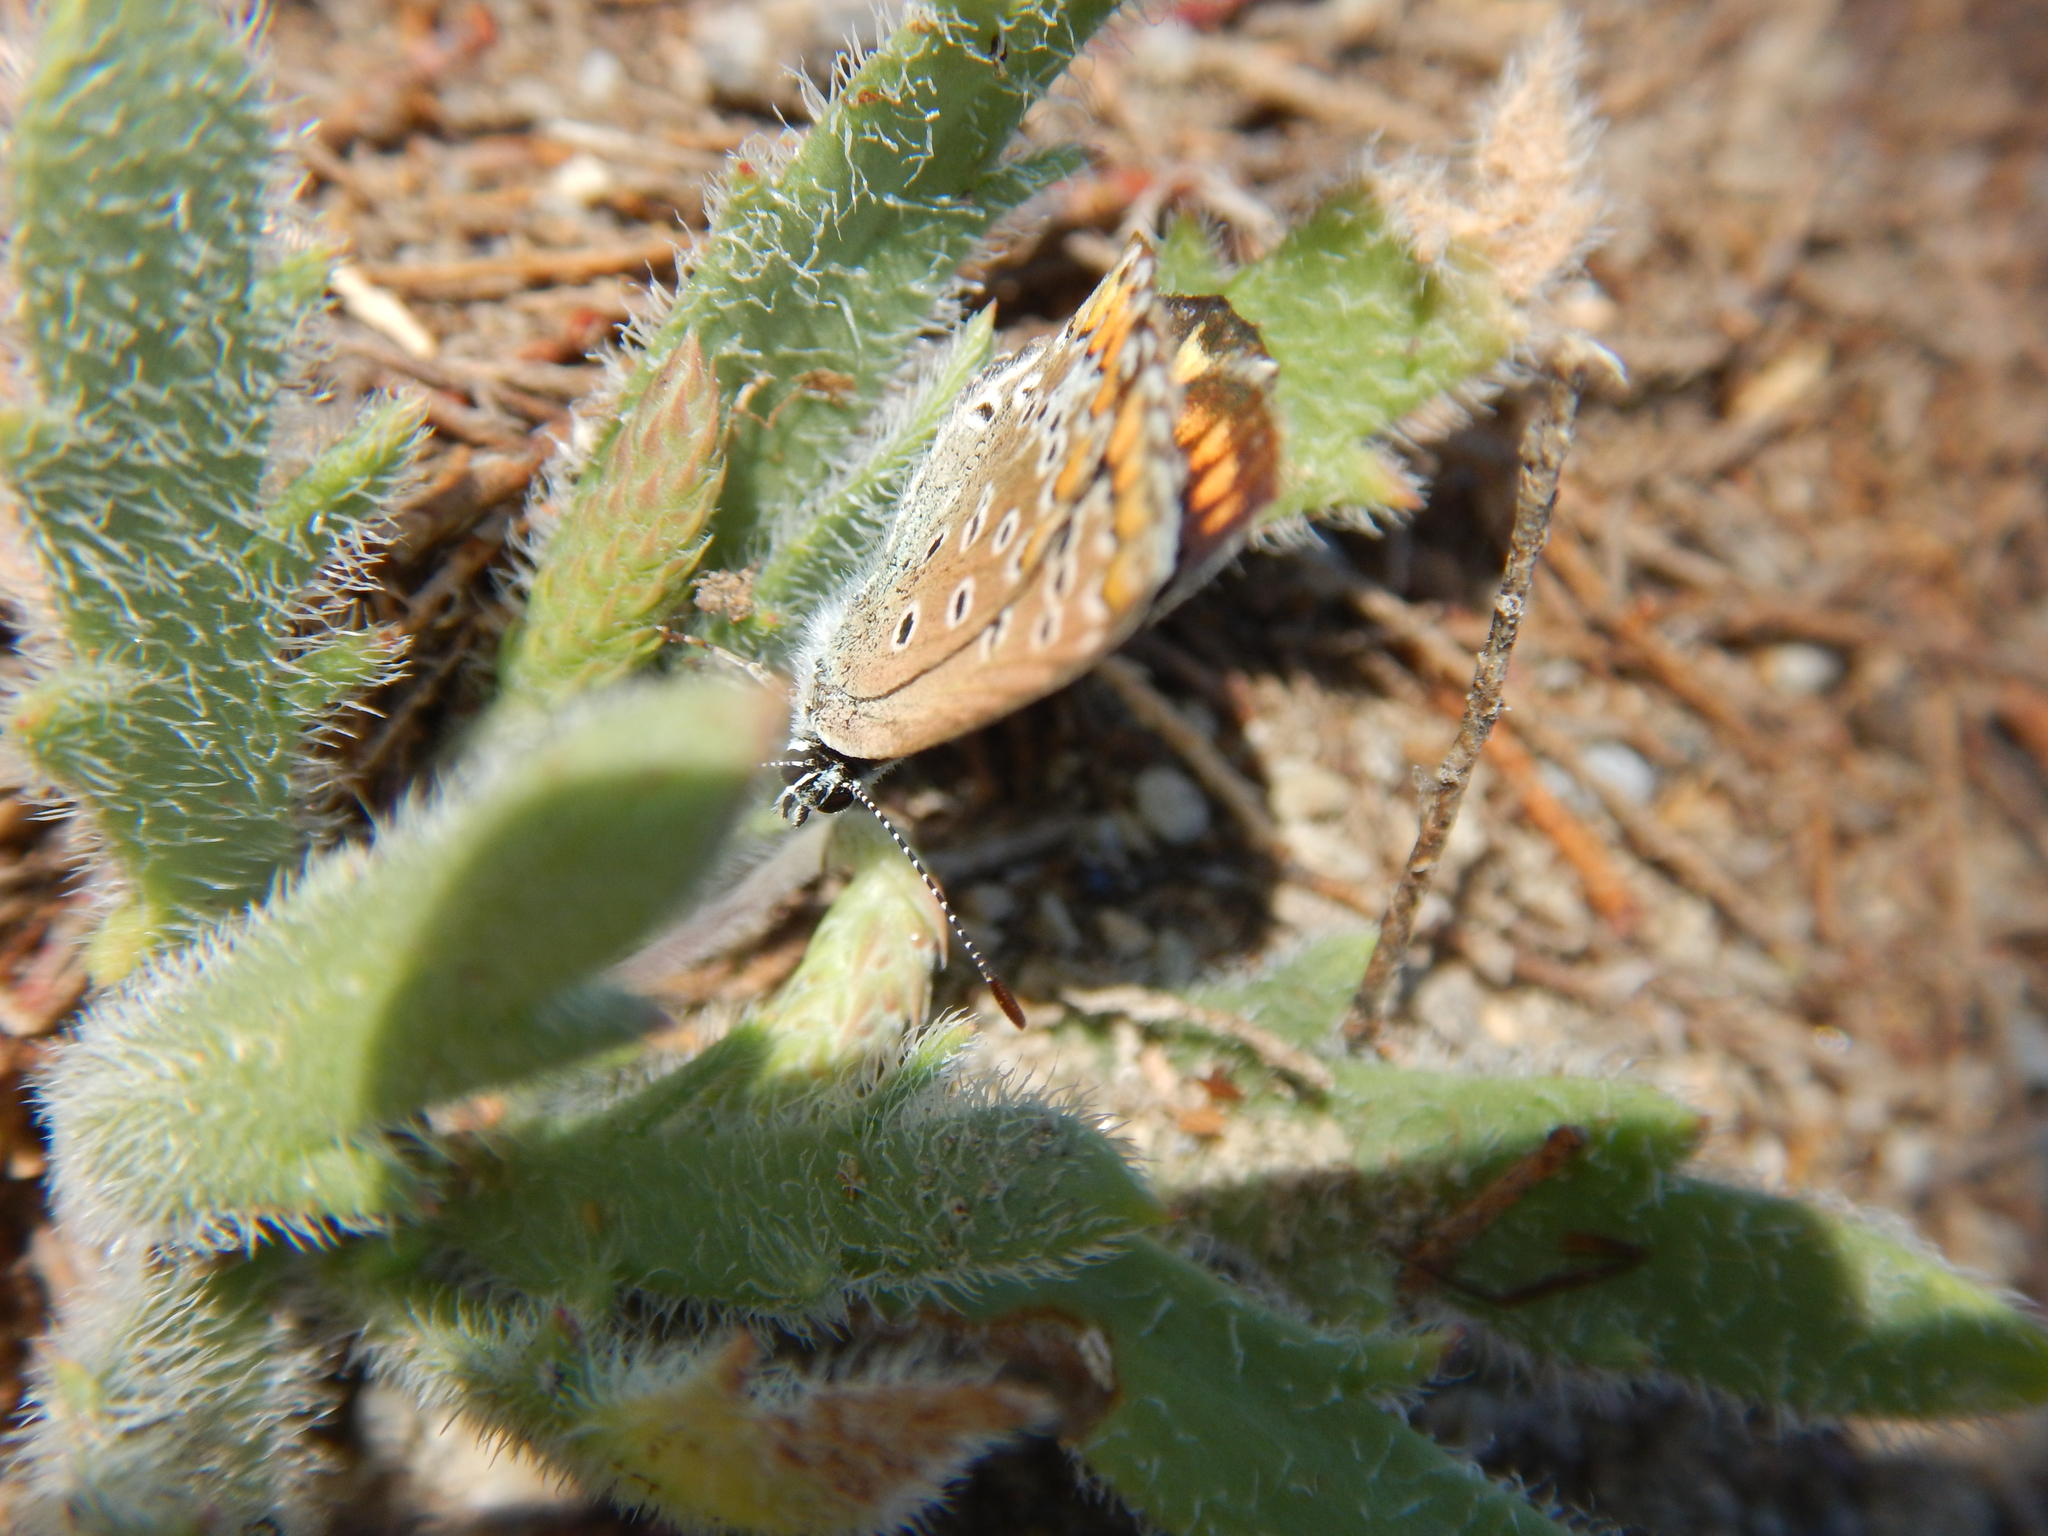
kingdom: Animalia
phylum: Arthropoda
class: Insecta
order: Lepidoptera
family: Lycaenidae
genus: Polyommatus
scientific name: Polyommatus icarus
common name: Common blue
